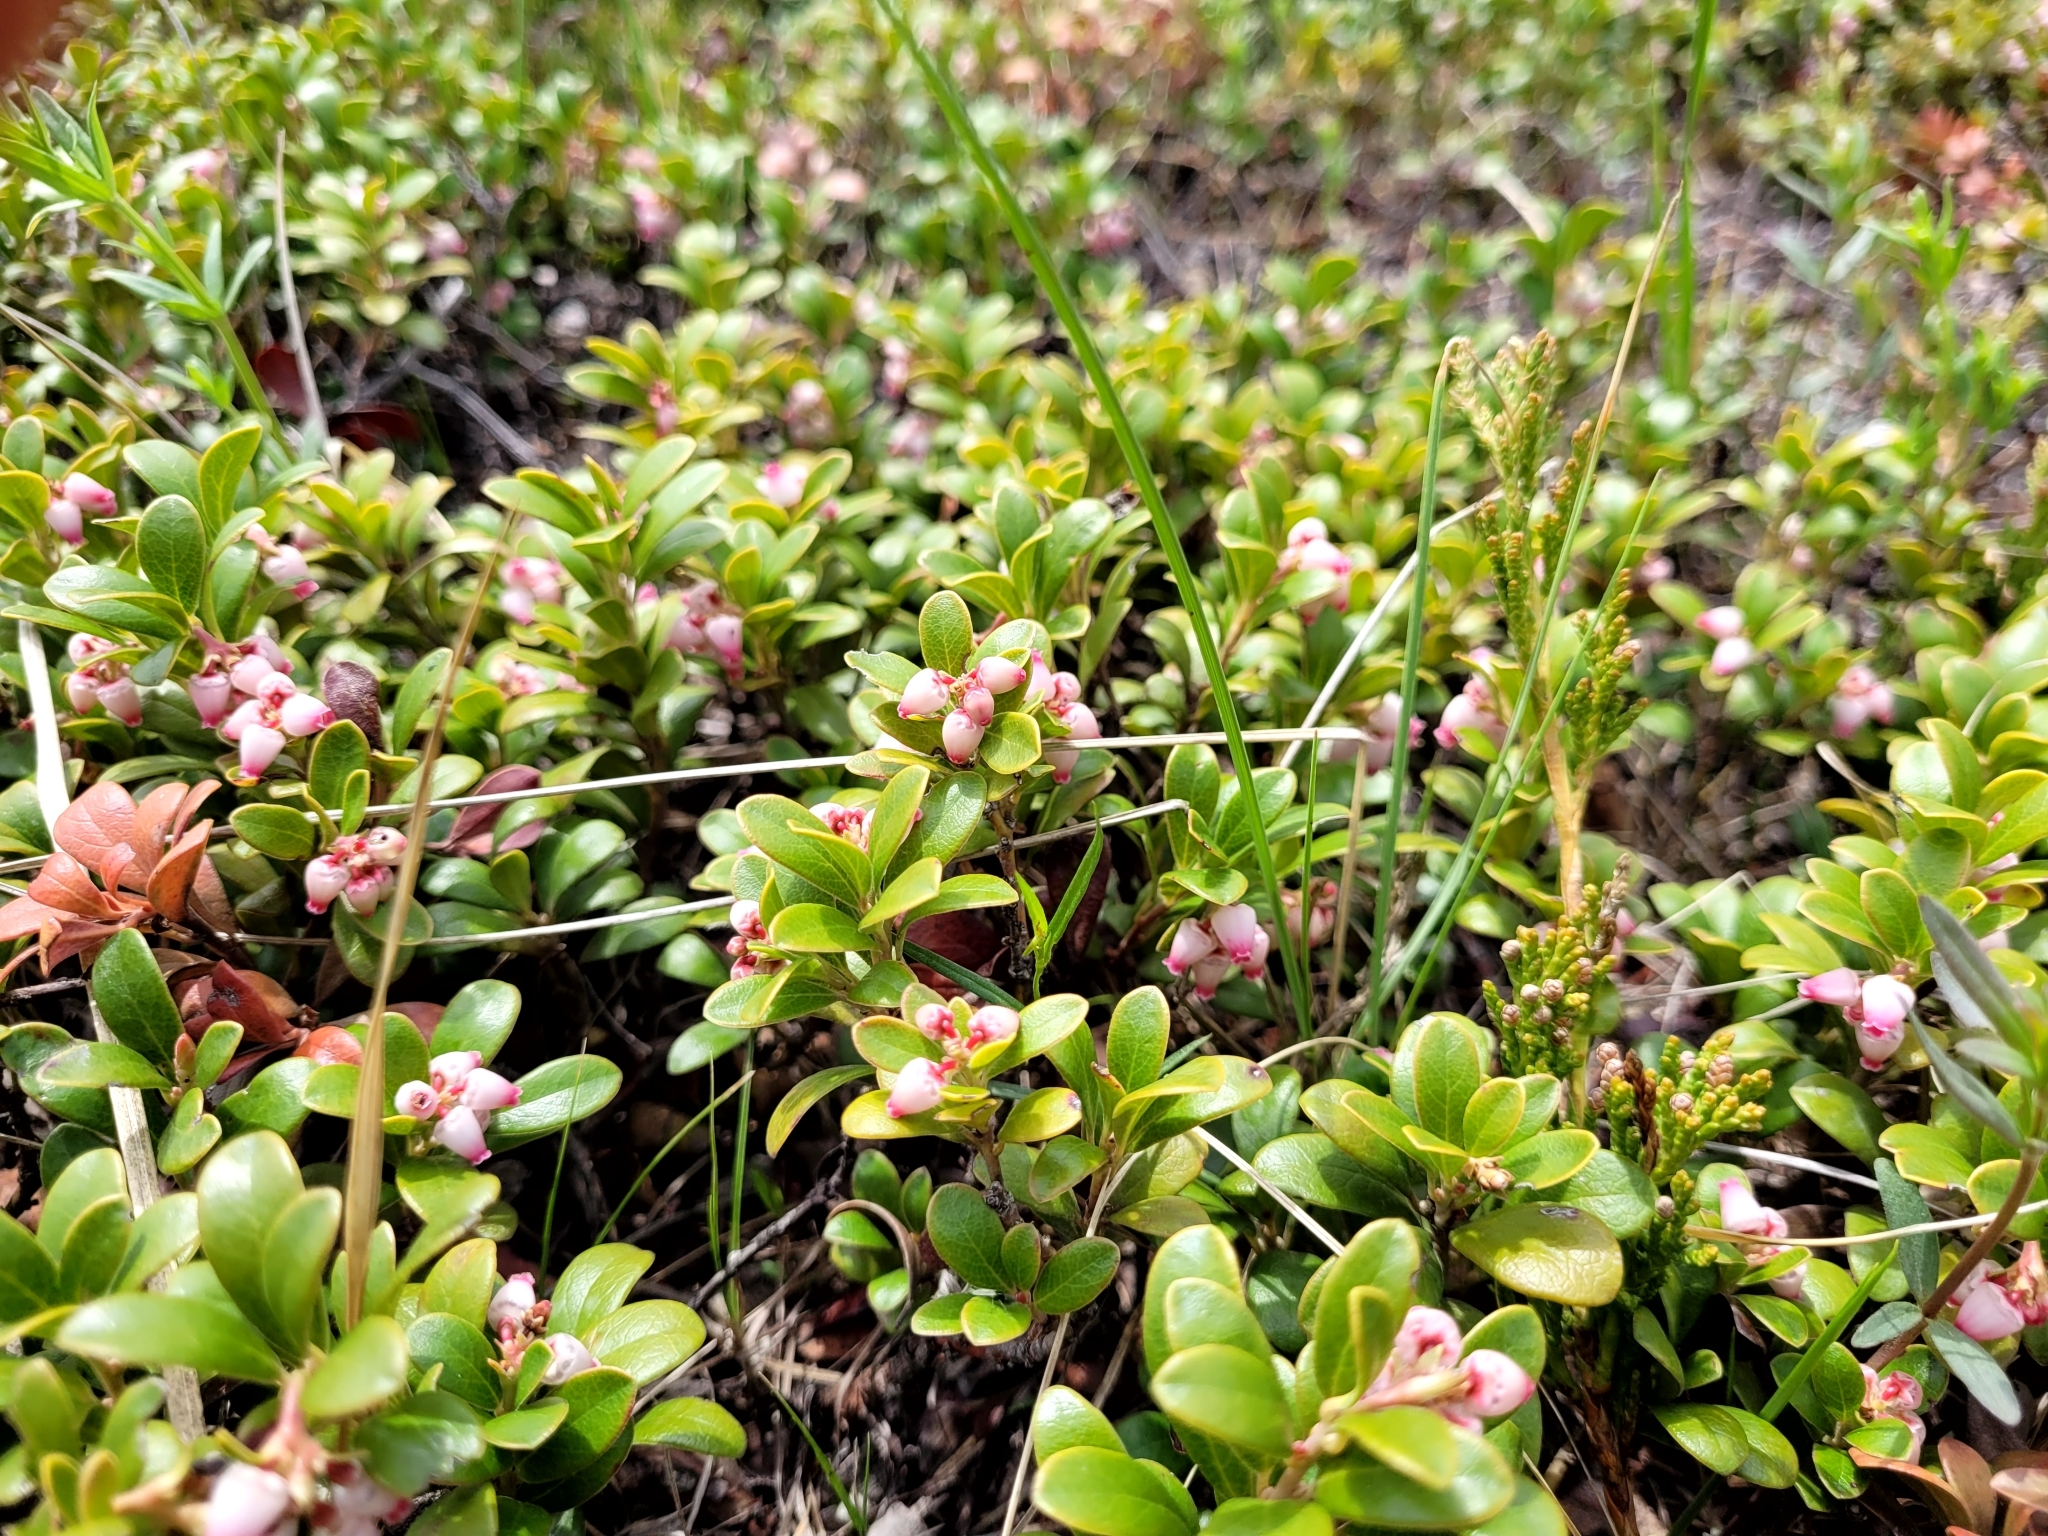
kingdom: Plantae
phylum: Tracheophyta
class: Magnoliopsida
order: Ericales
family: Ericaceae
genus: Arctostaphylos
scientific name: Arctostaphylos uva-ursi
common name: Bearberry
